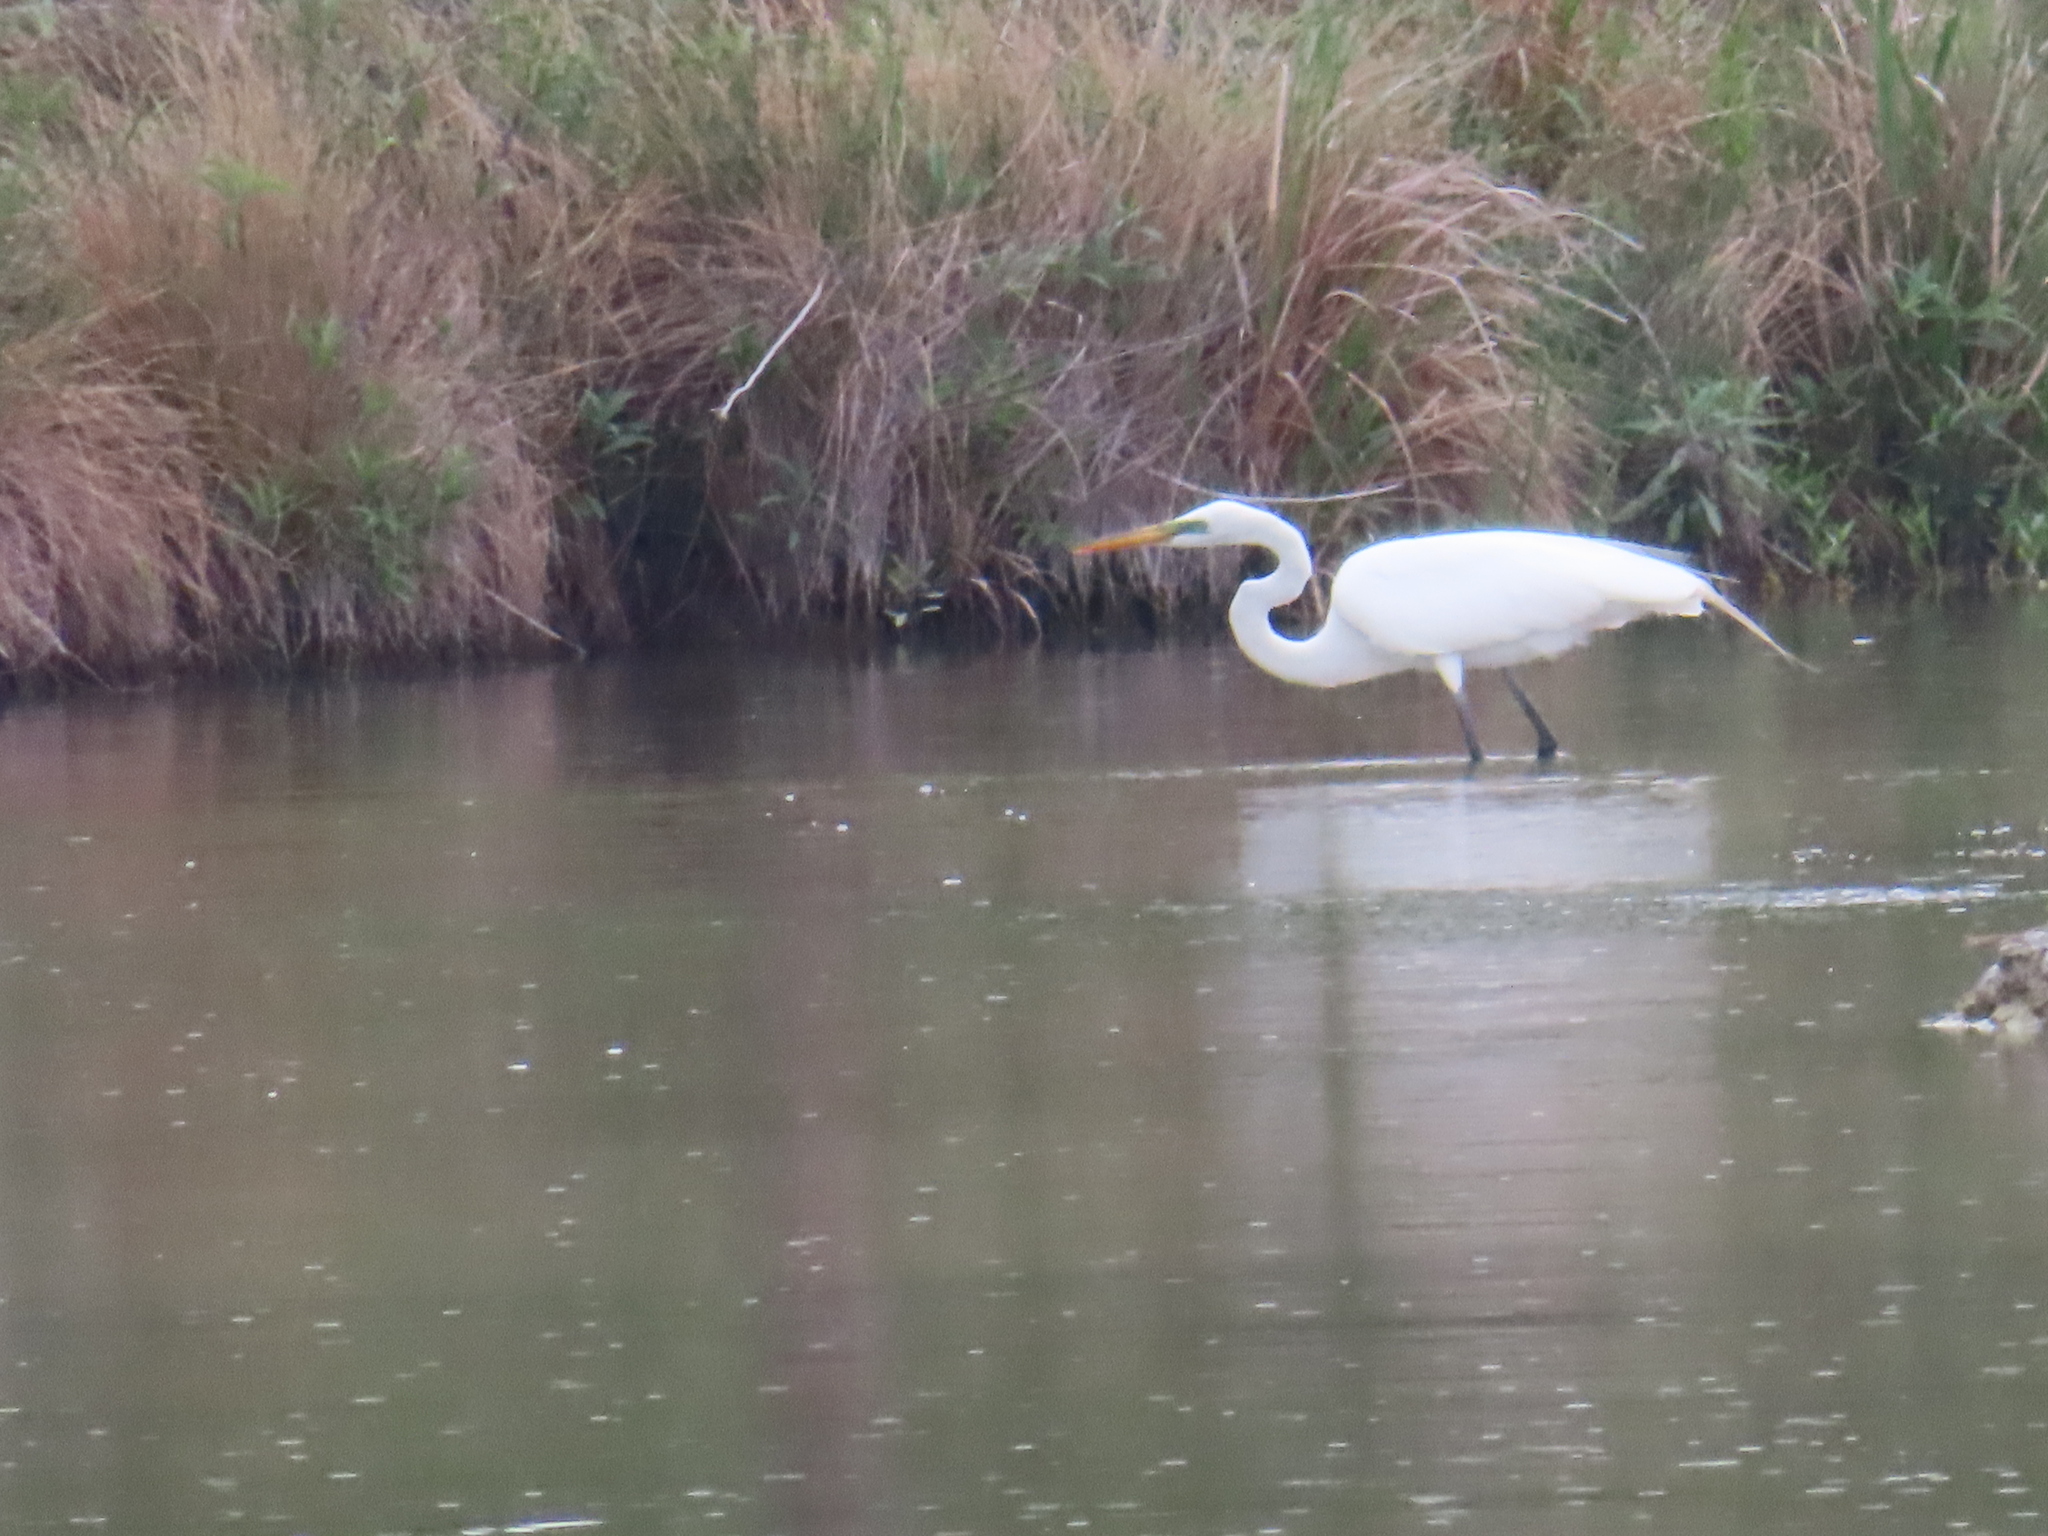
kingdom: Animalia
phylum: Chordata
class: Aves
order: Pelecaniformes
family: Ardeidae
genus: Ardea
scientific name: Ardea alba
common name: Great egret
